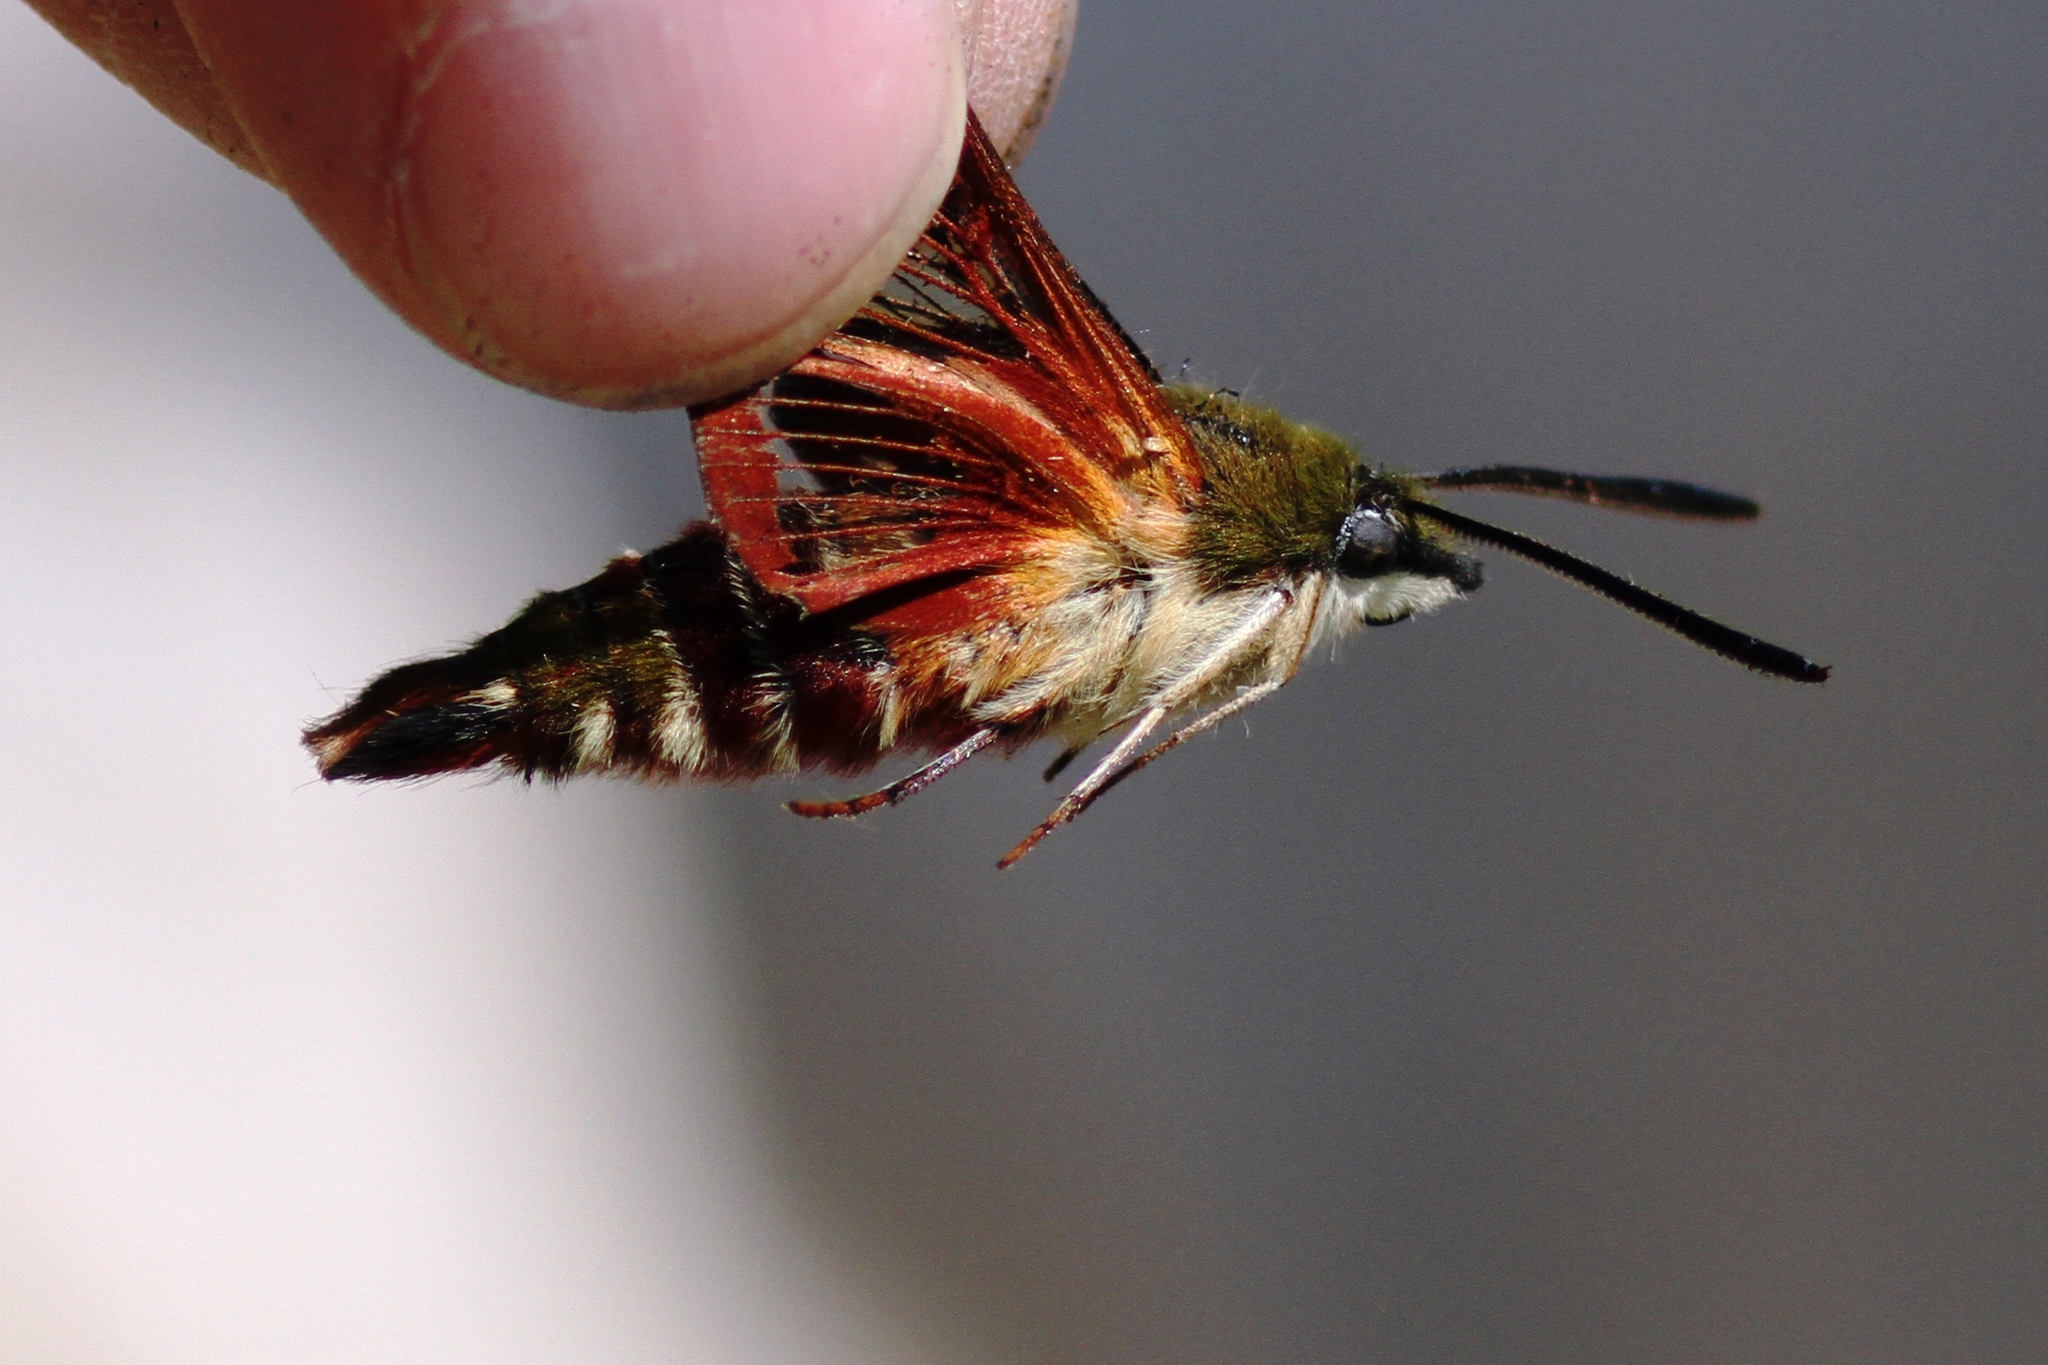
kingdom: Animalia
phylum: Arthropoda
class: Insecta
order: Lepidoptera
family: Sphingidae
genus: Hemaris
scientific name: Hemaris thysbe
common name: Common clear-wing
